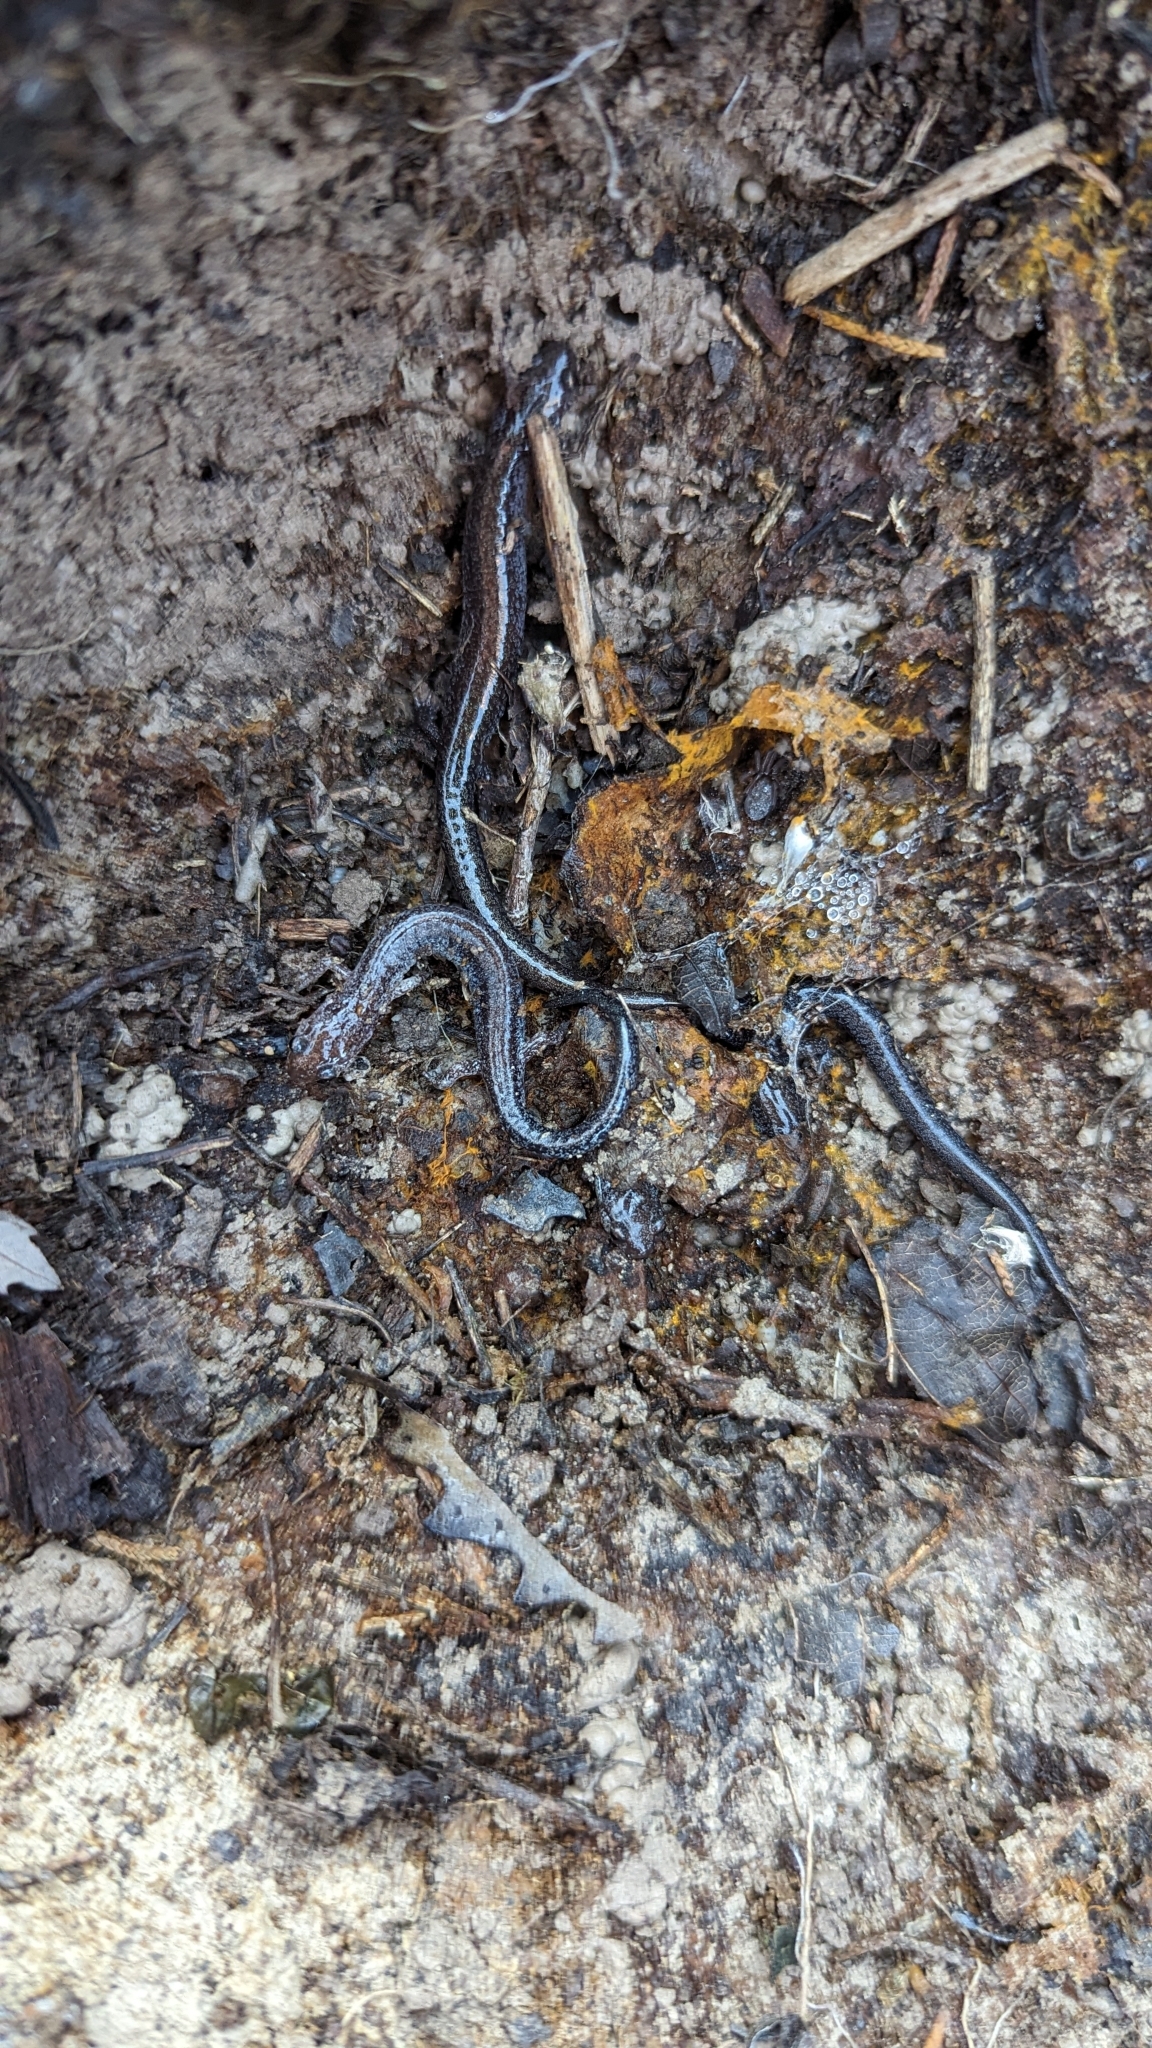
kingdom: Animalia
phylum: Chordata
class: Amphibia
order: Caudata
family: Plethodontidae
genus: Plethodon
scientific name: Plethodon cinereus
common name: Redback salamander
